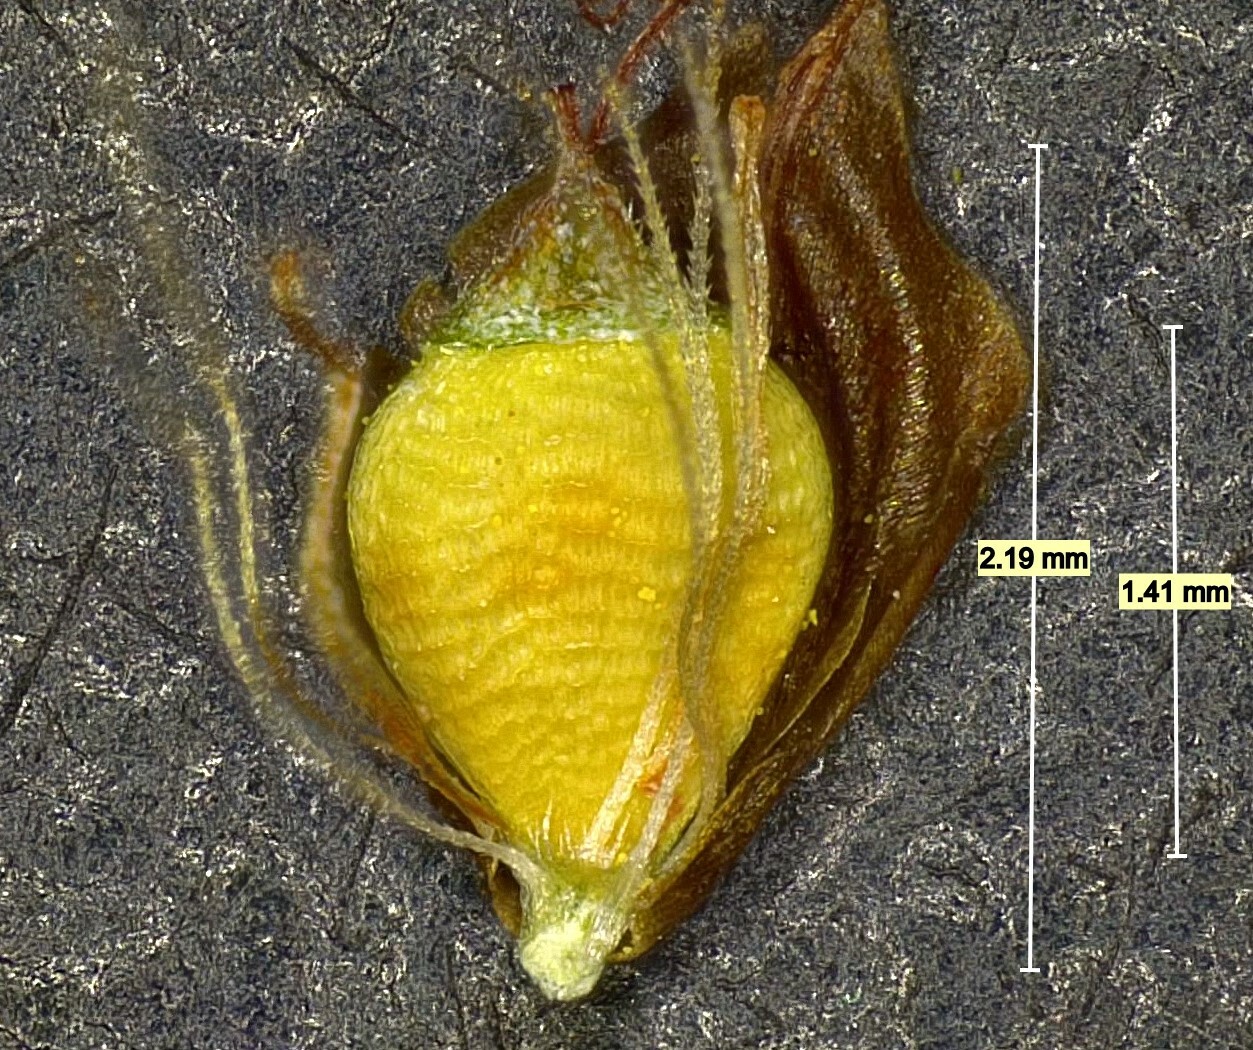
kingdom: Plantae
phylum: Tracheophyta
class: Liliopsida
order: Poales
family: Cyperaceae
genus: Rhynchospora
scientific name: Rhynchospora caduca
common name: Anglestem beaksedge
